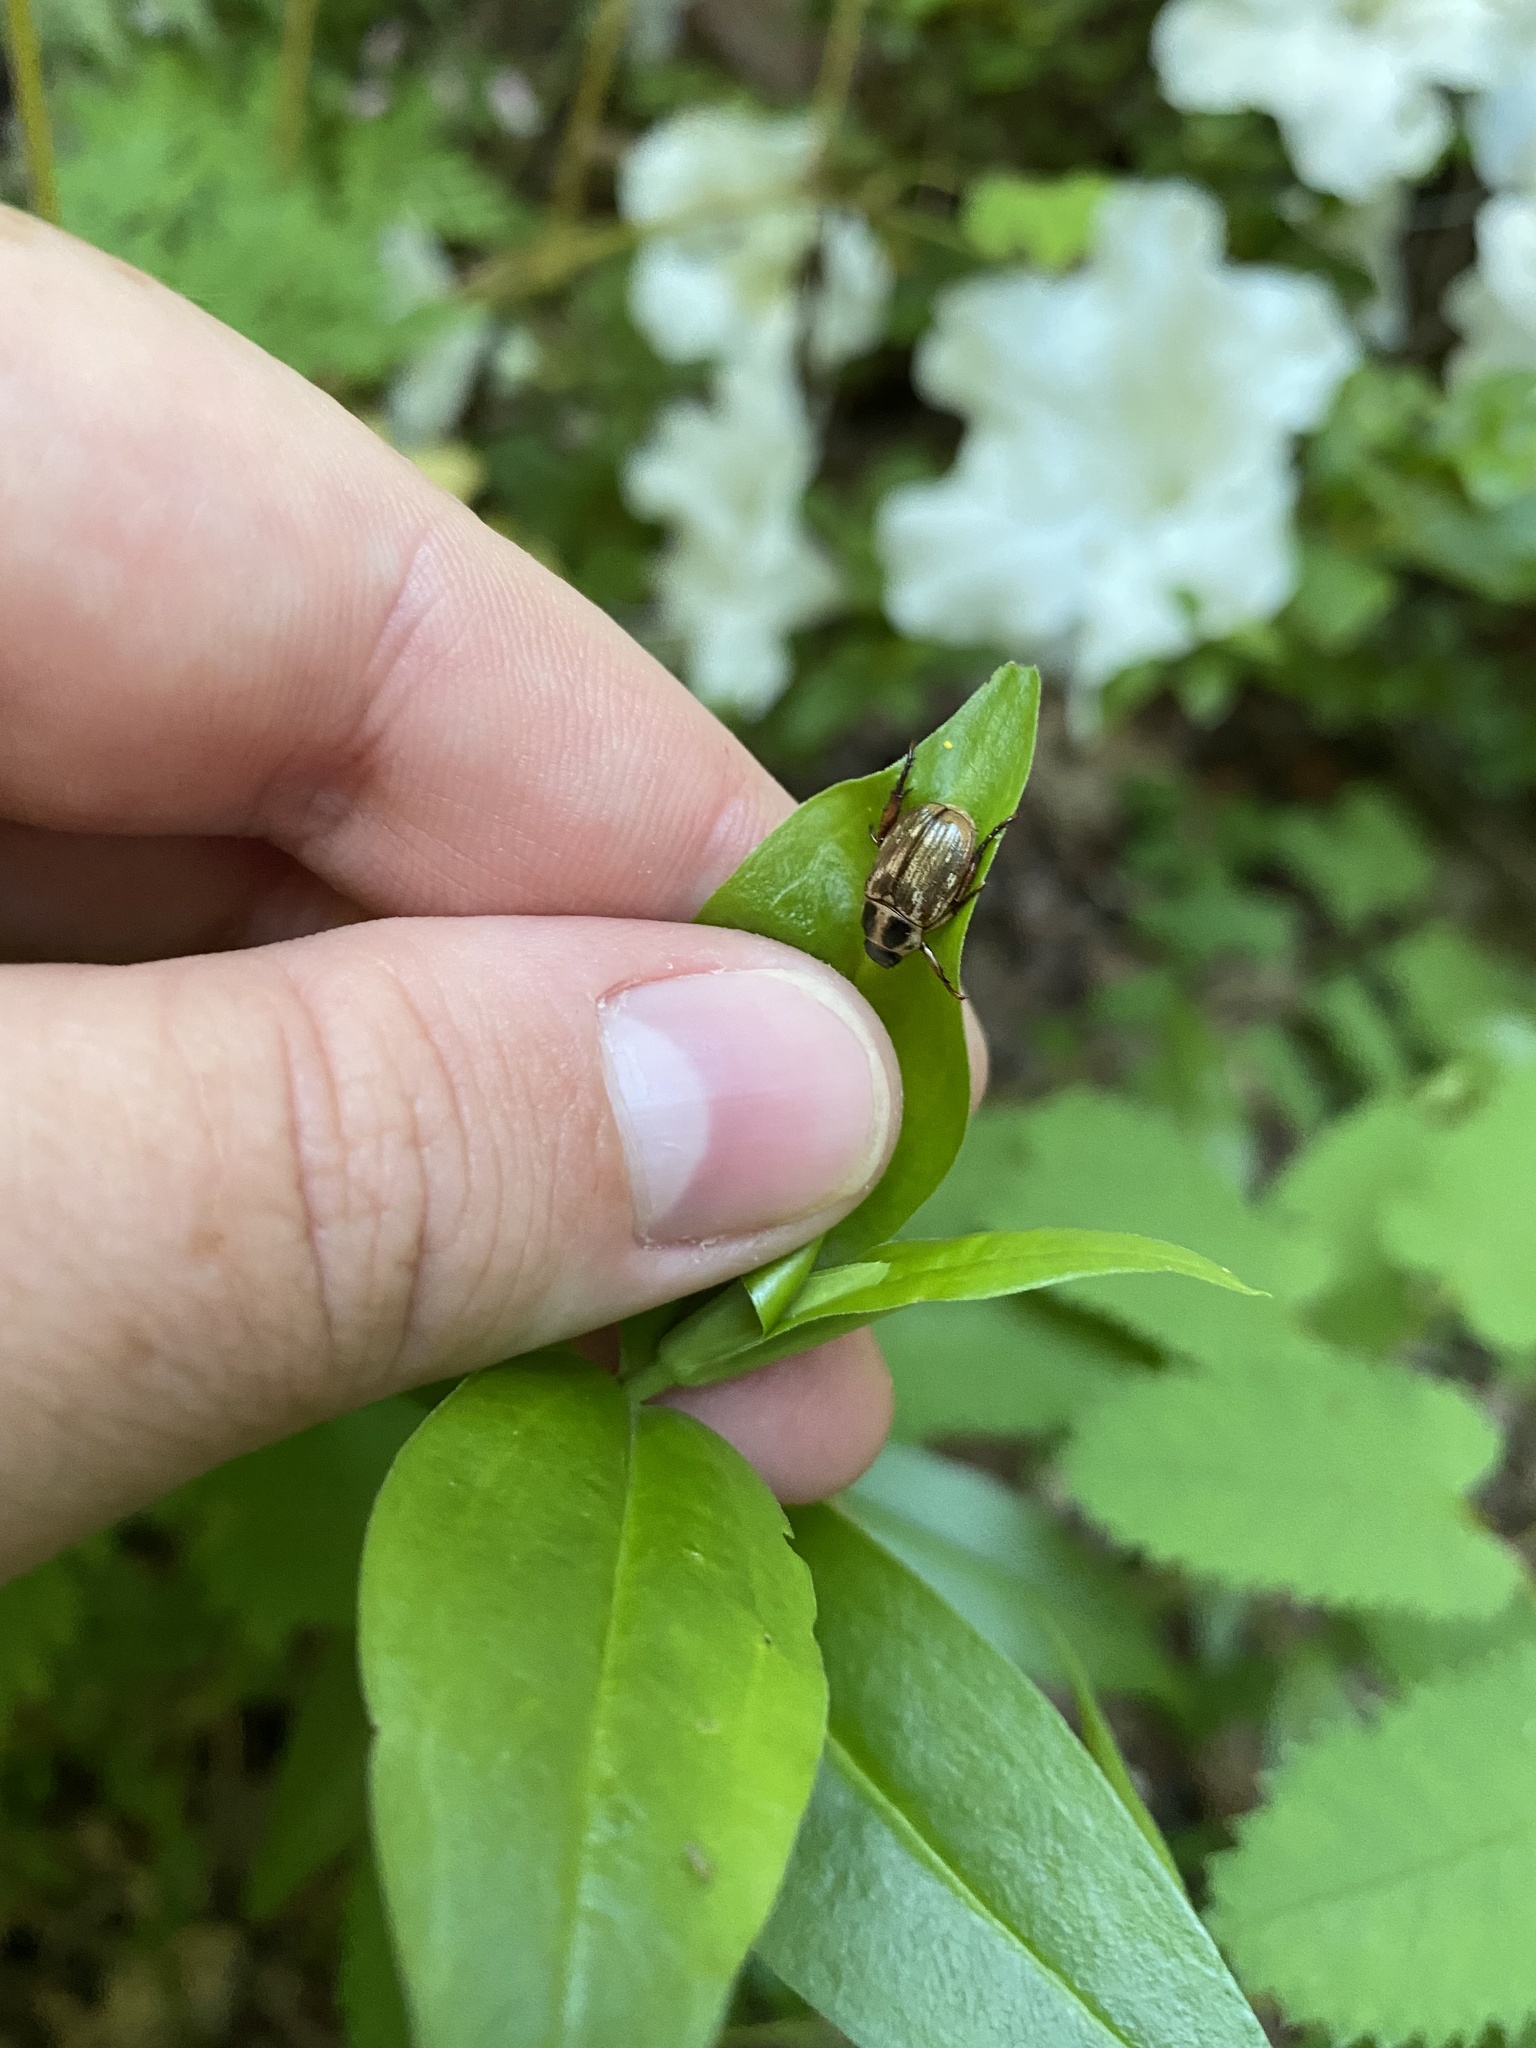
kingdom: Animalia
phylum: Arthropoda
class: Insecta
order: Coleoptera
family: Scarabaeidae
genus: Exomala
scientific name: Exomala orientalis
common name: Oriental beetle
